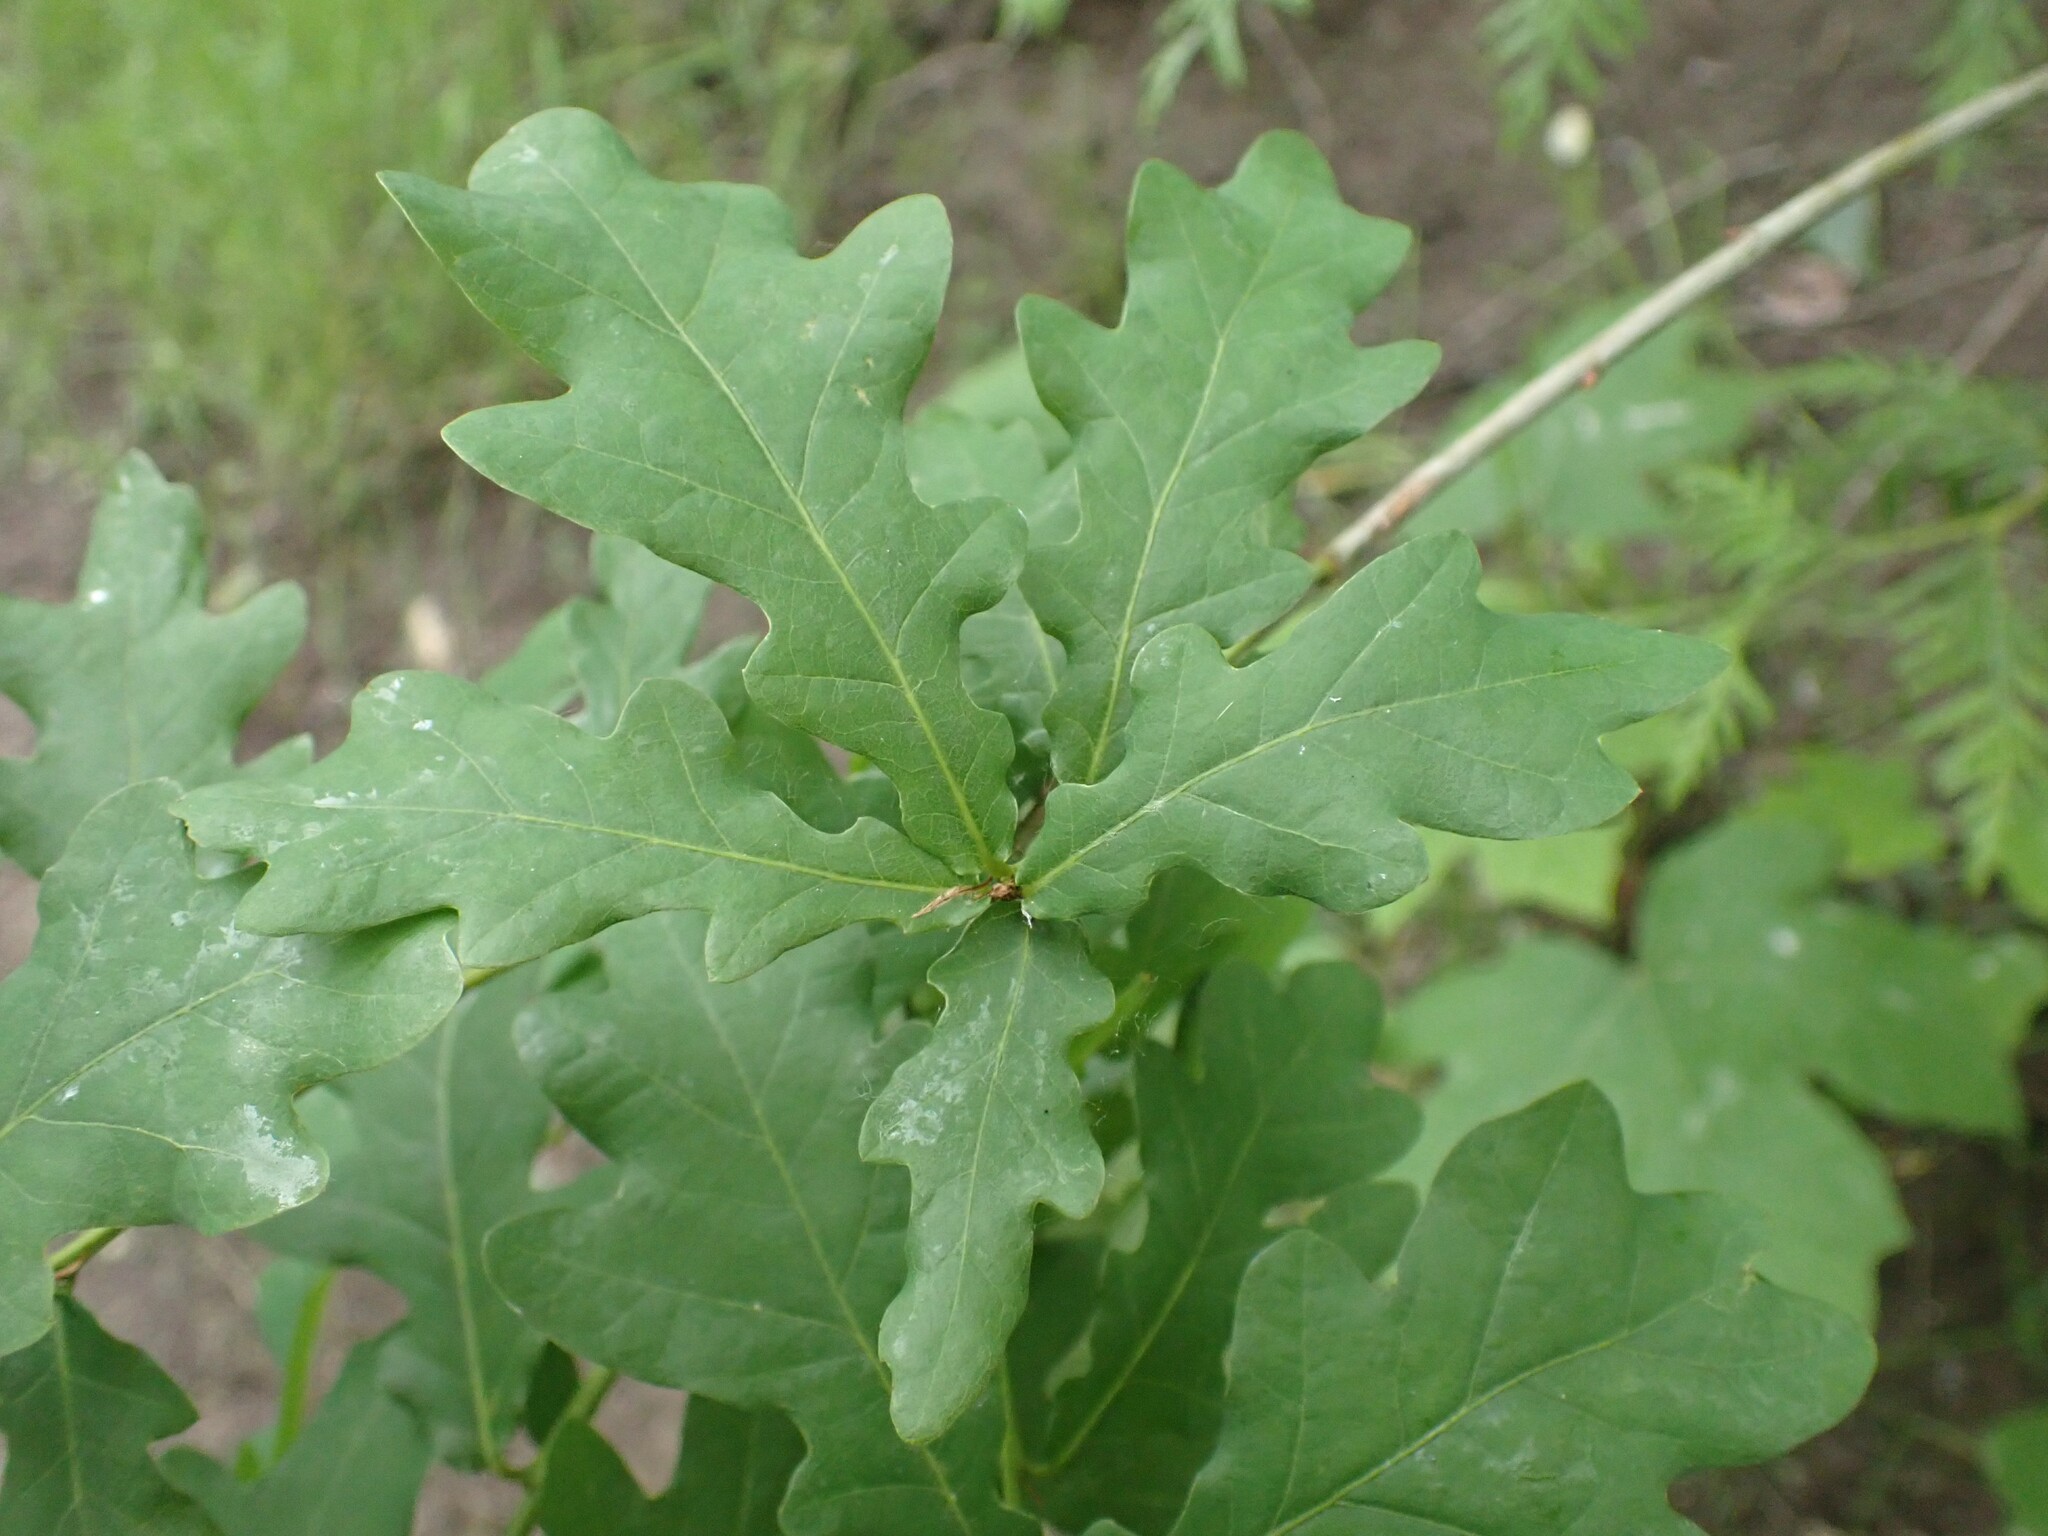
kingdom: Plantae
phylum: Tracheophyta
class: Magnoliopsida
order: Fagales
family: Fagaceae
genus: Quercus
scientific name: Quercus robur
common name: Pedunculate oak
